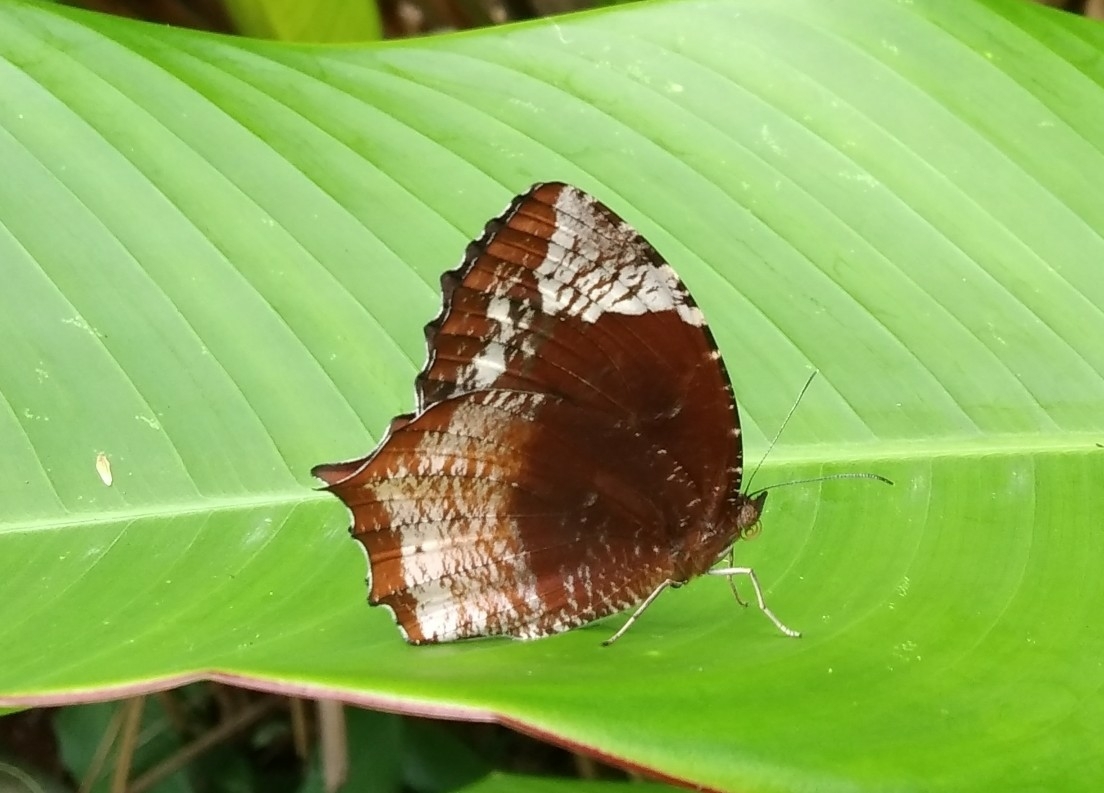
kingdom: Animalia
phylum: Arthropoda
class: Insecta
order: Lepidoptera
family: Nymphalidae
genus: Elymnias
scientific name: Elymnias caudata
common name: Tailed palmfly
